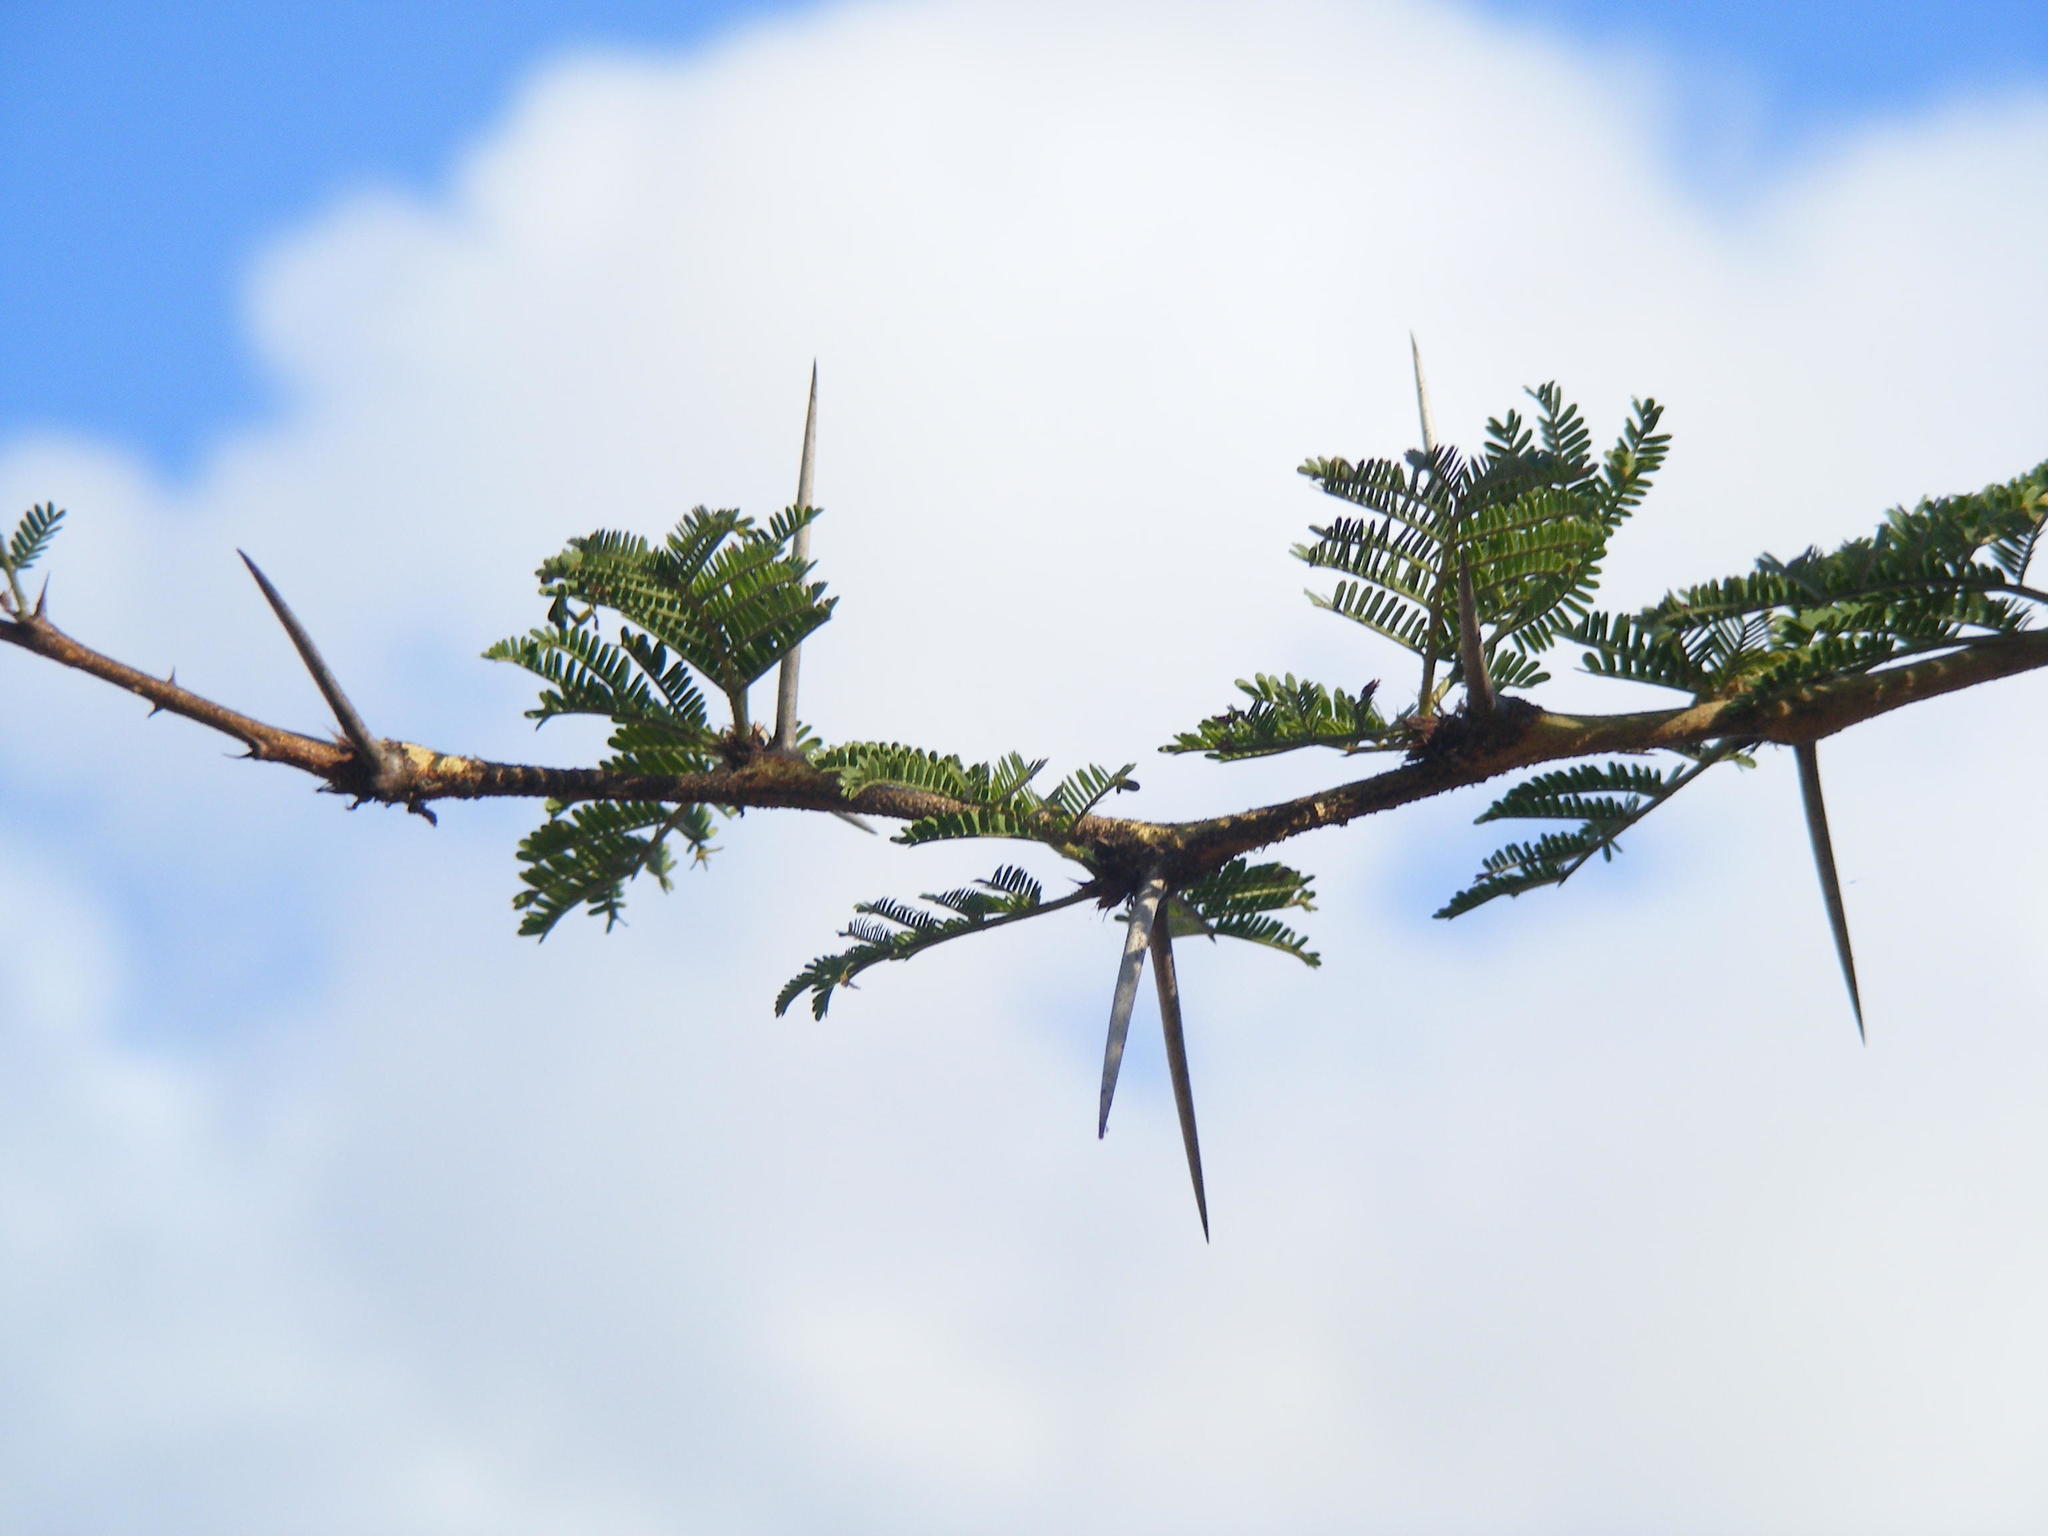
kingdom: Plantae
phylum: Tracheophyta
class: Magnoliopsida
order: Fabales
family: Fabaceae
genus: Vachellia
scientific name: Vachellia xanthophloea
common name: Fever tree
